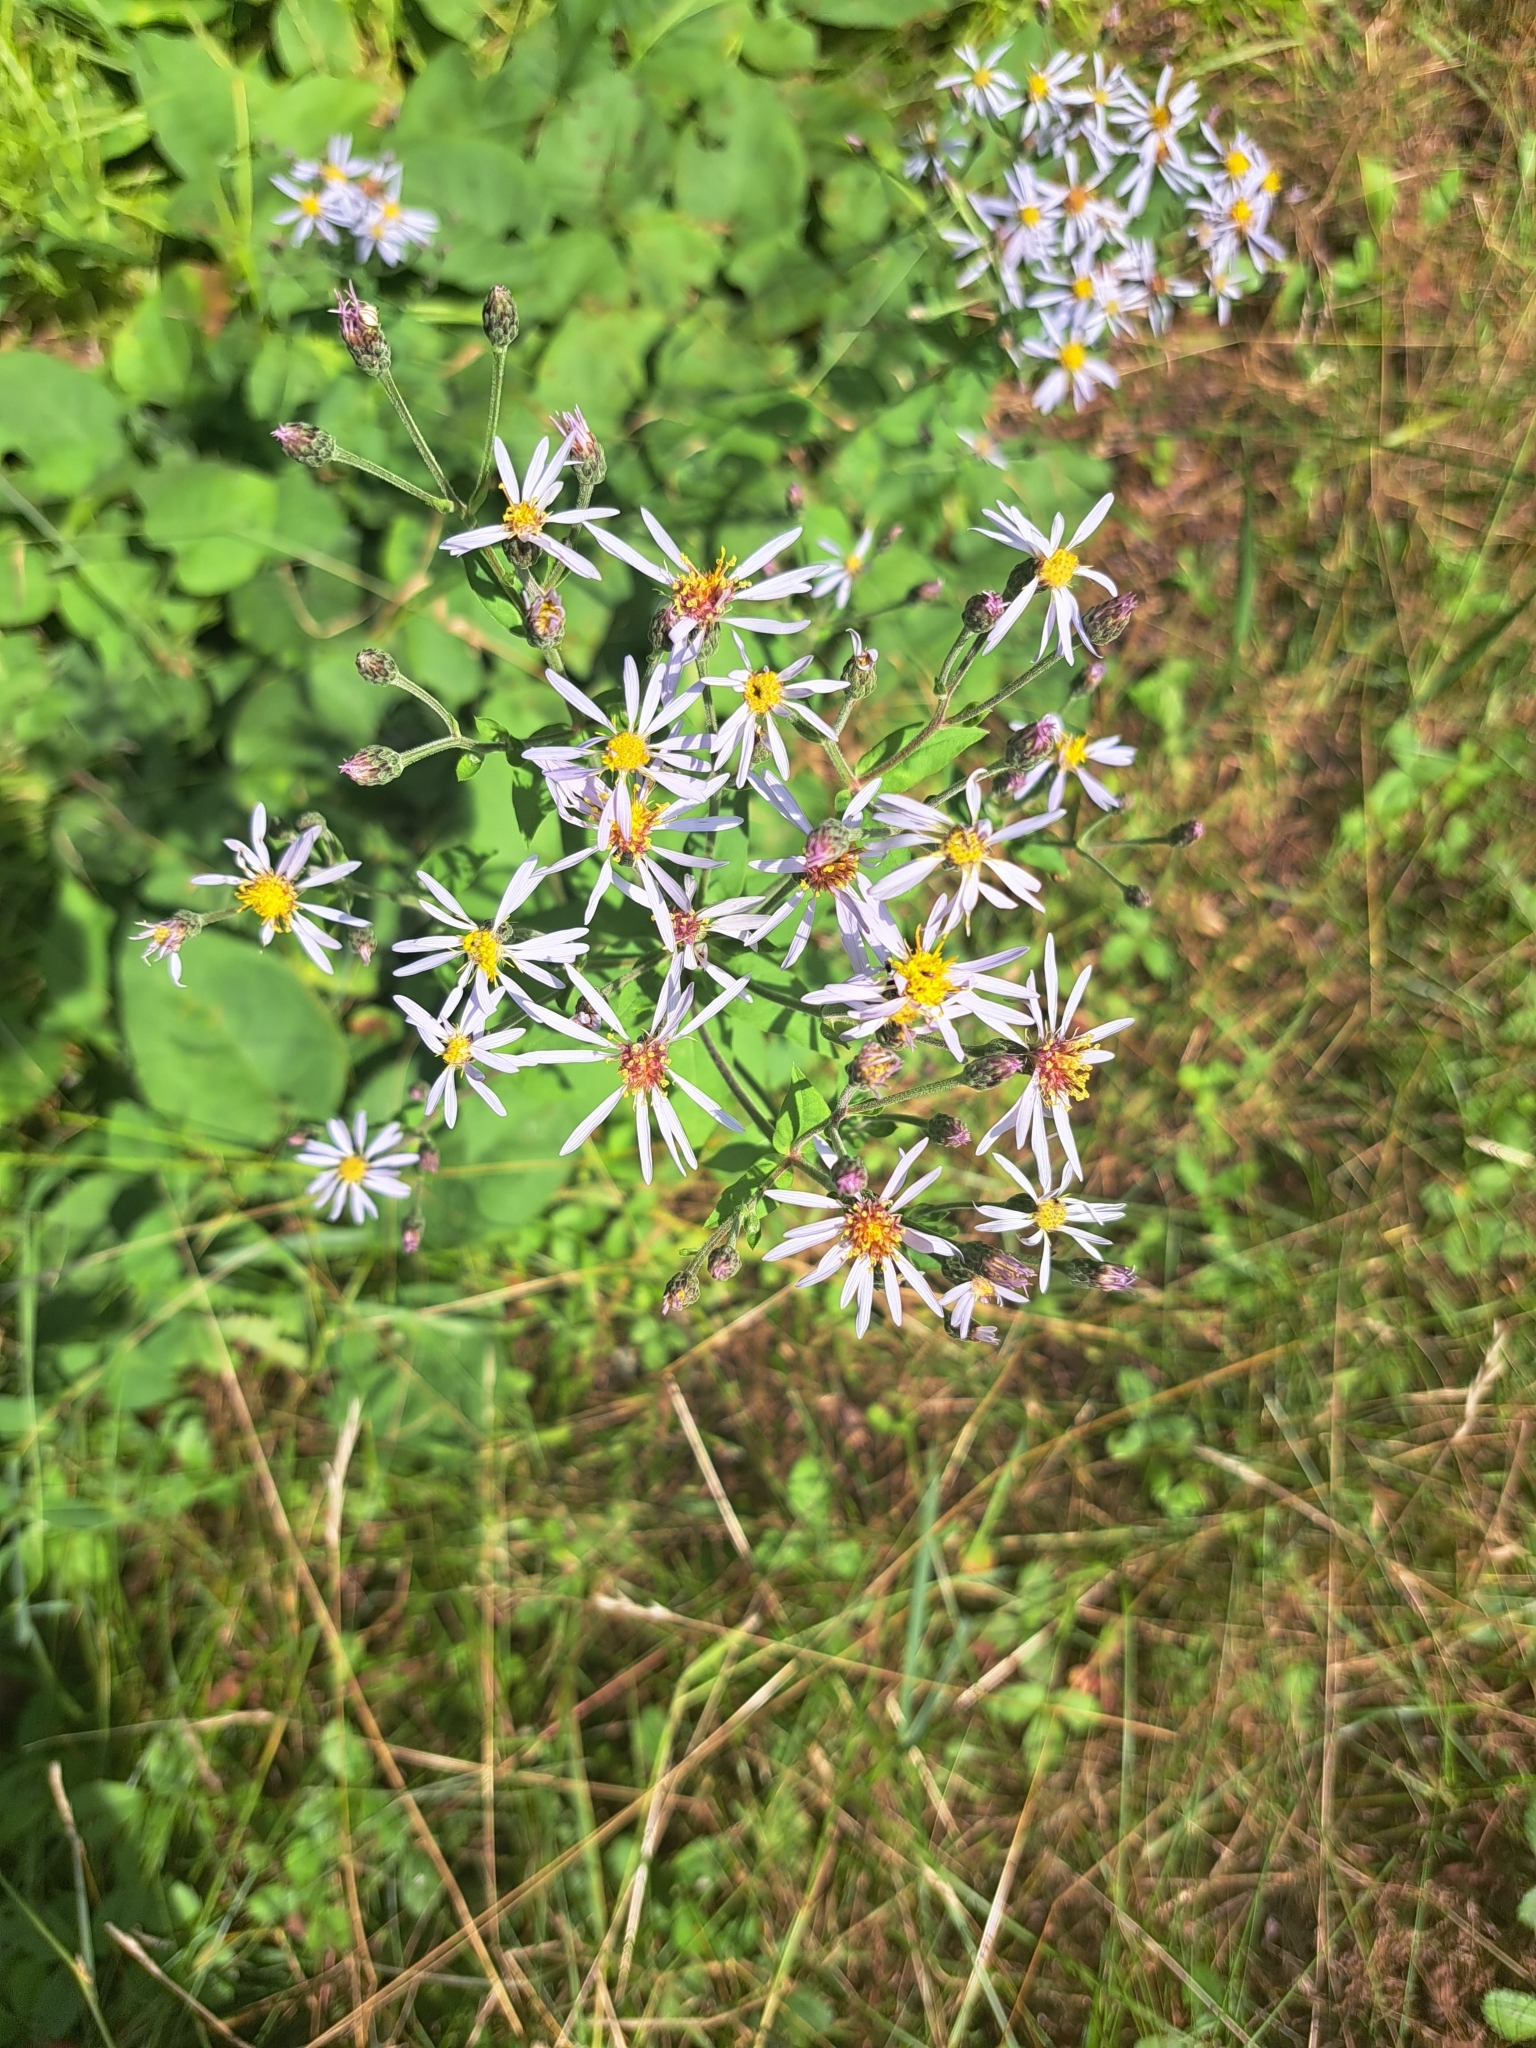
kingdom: Plantae
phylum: Tracheophyta
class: Magnoliopsida
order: Asterales
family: Asteraceae
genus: Eurybia
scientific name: Eurybia macrophylla
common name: Big-leaved aster
